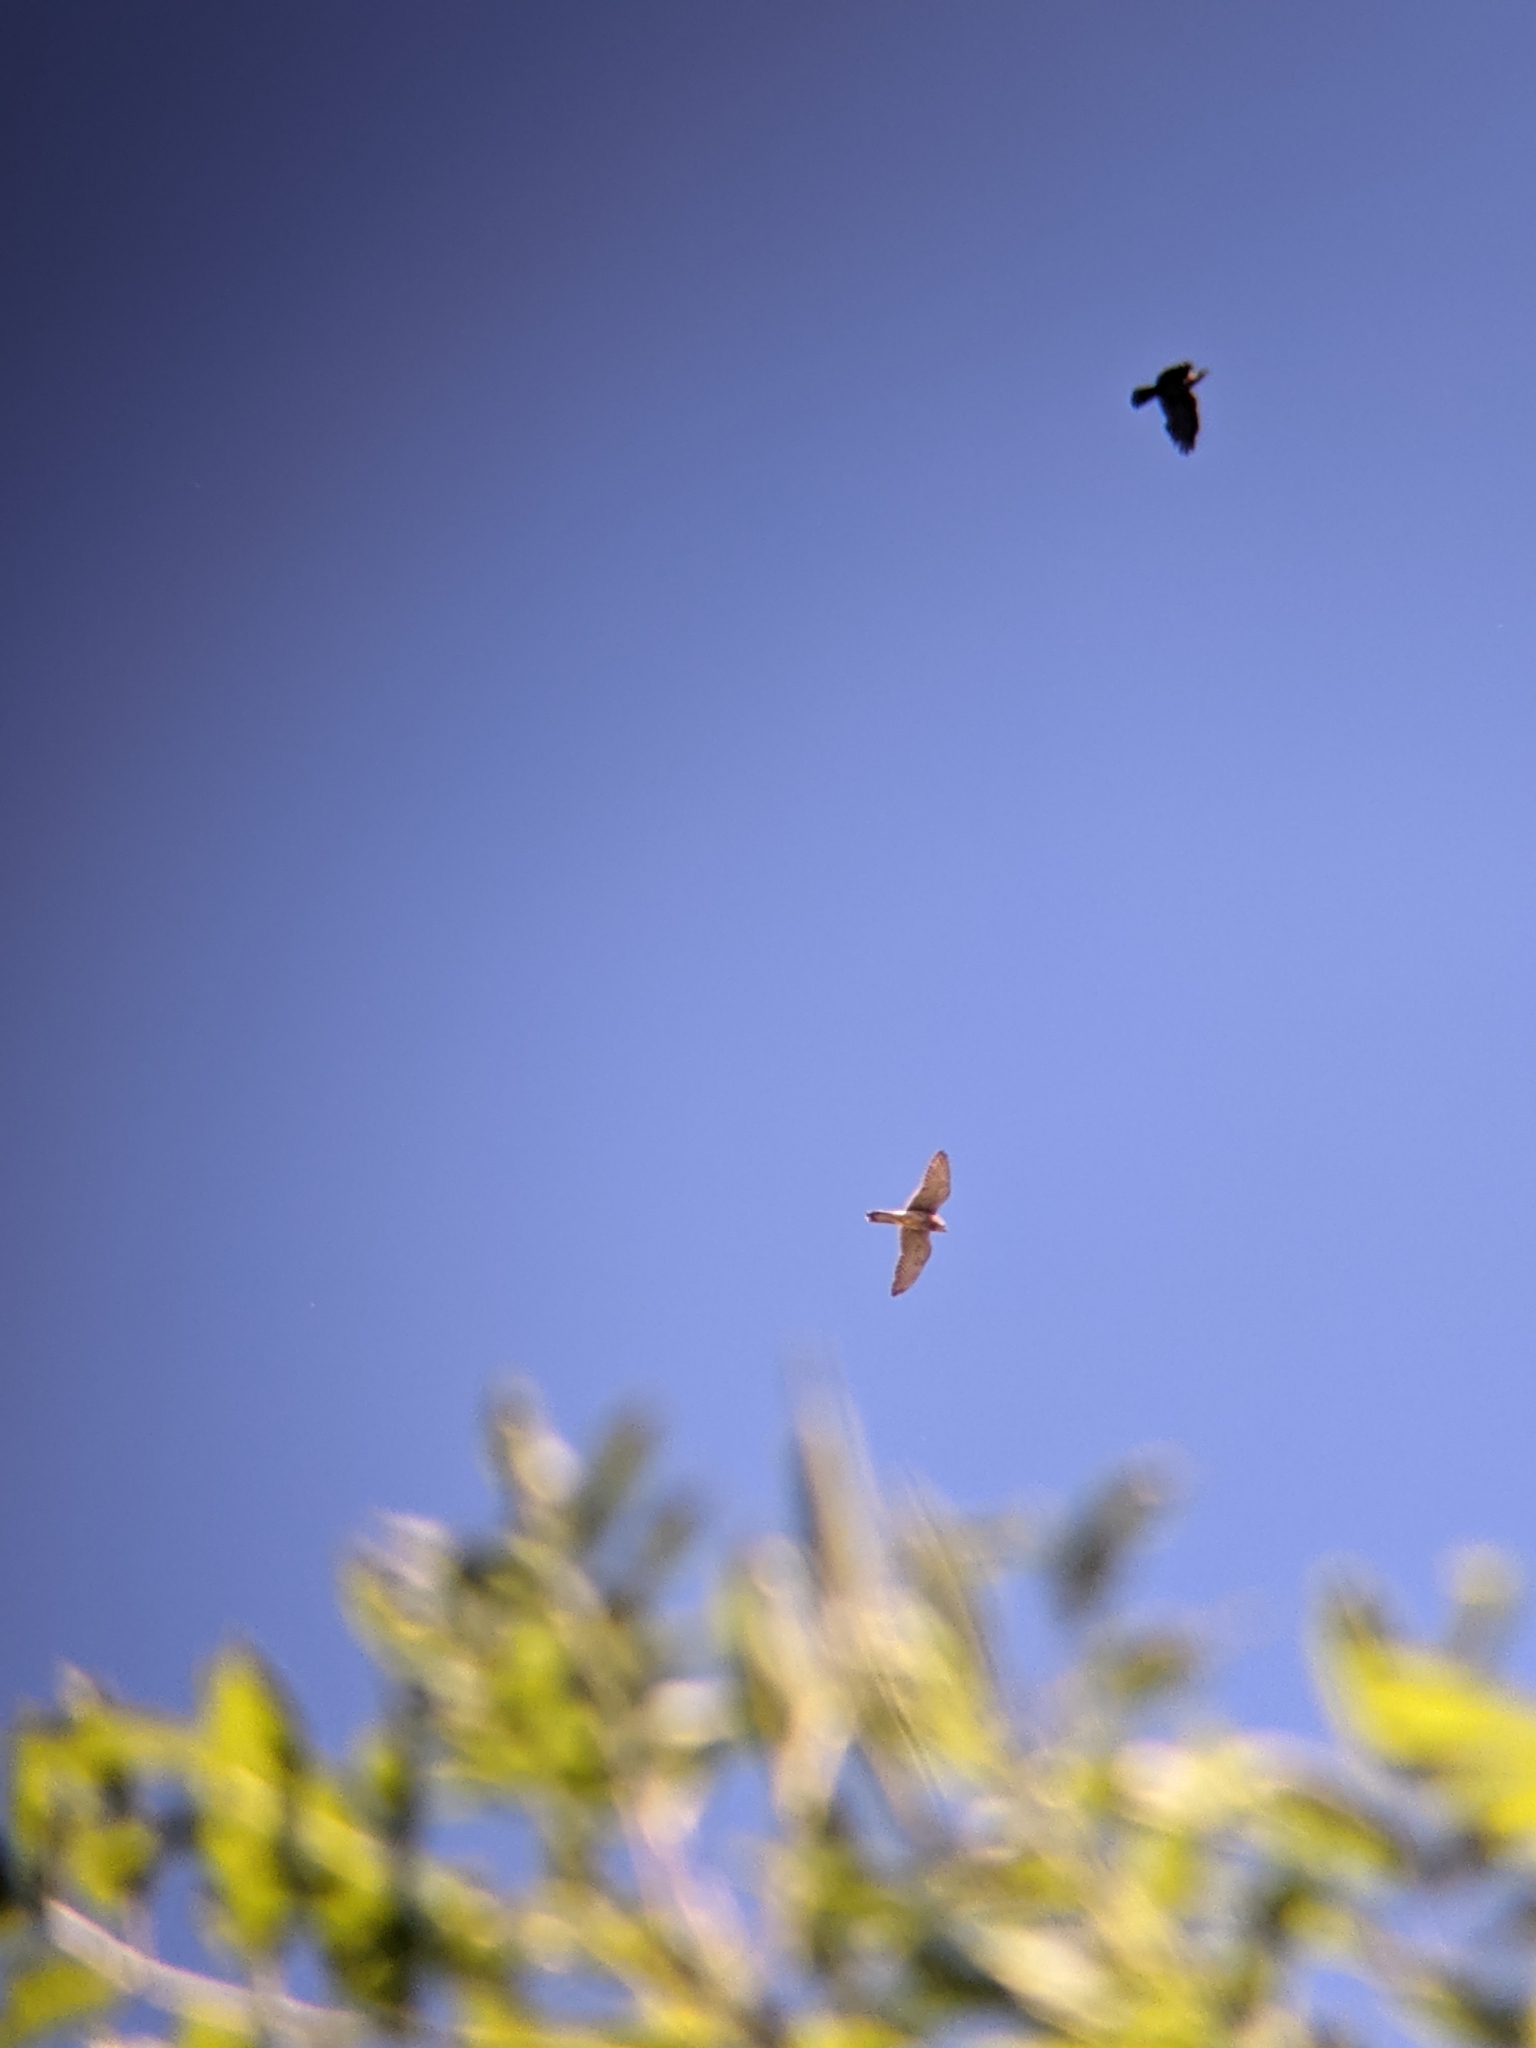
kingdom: Animalia
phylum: Chordata
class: Aves
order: Falconiformes
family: Falconidae
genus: Falco
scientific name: Falco tinnunculus
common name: Common kestrel
